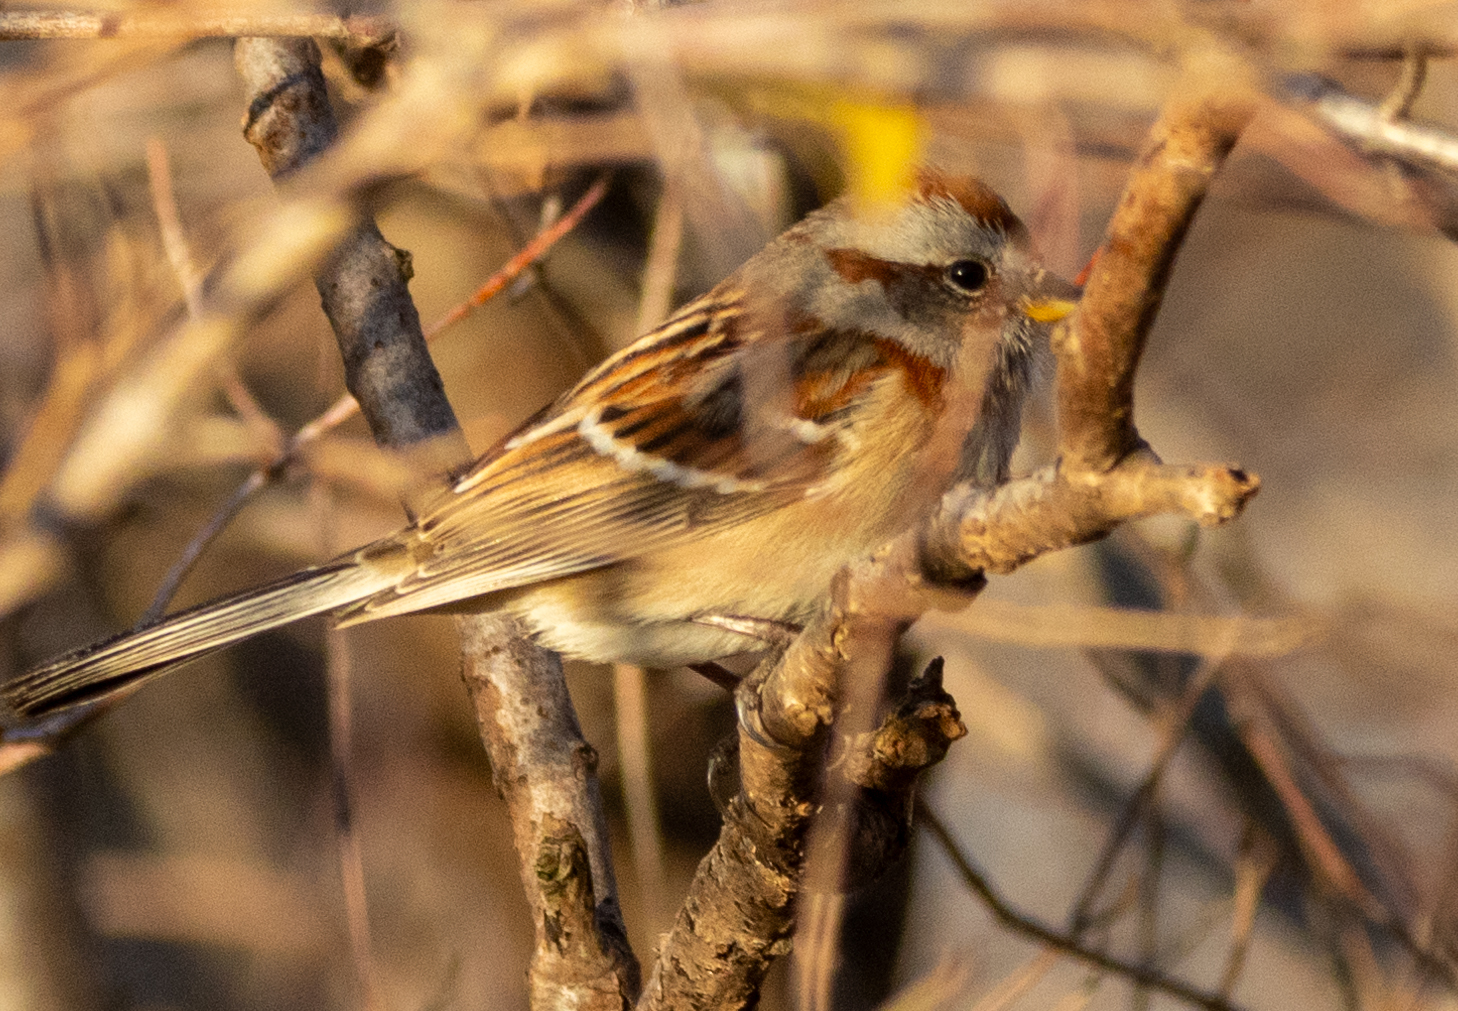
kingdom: Animalia
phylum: Chordata
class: Aves
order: Passeriformes
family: Passerellidae
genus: Spizelloides
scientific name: Spizelloides arborea
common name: American tree sparrow
